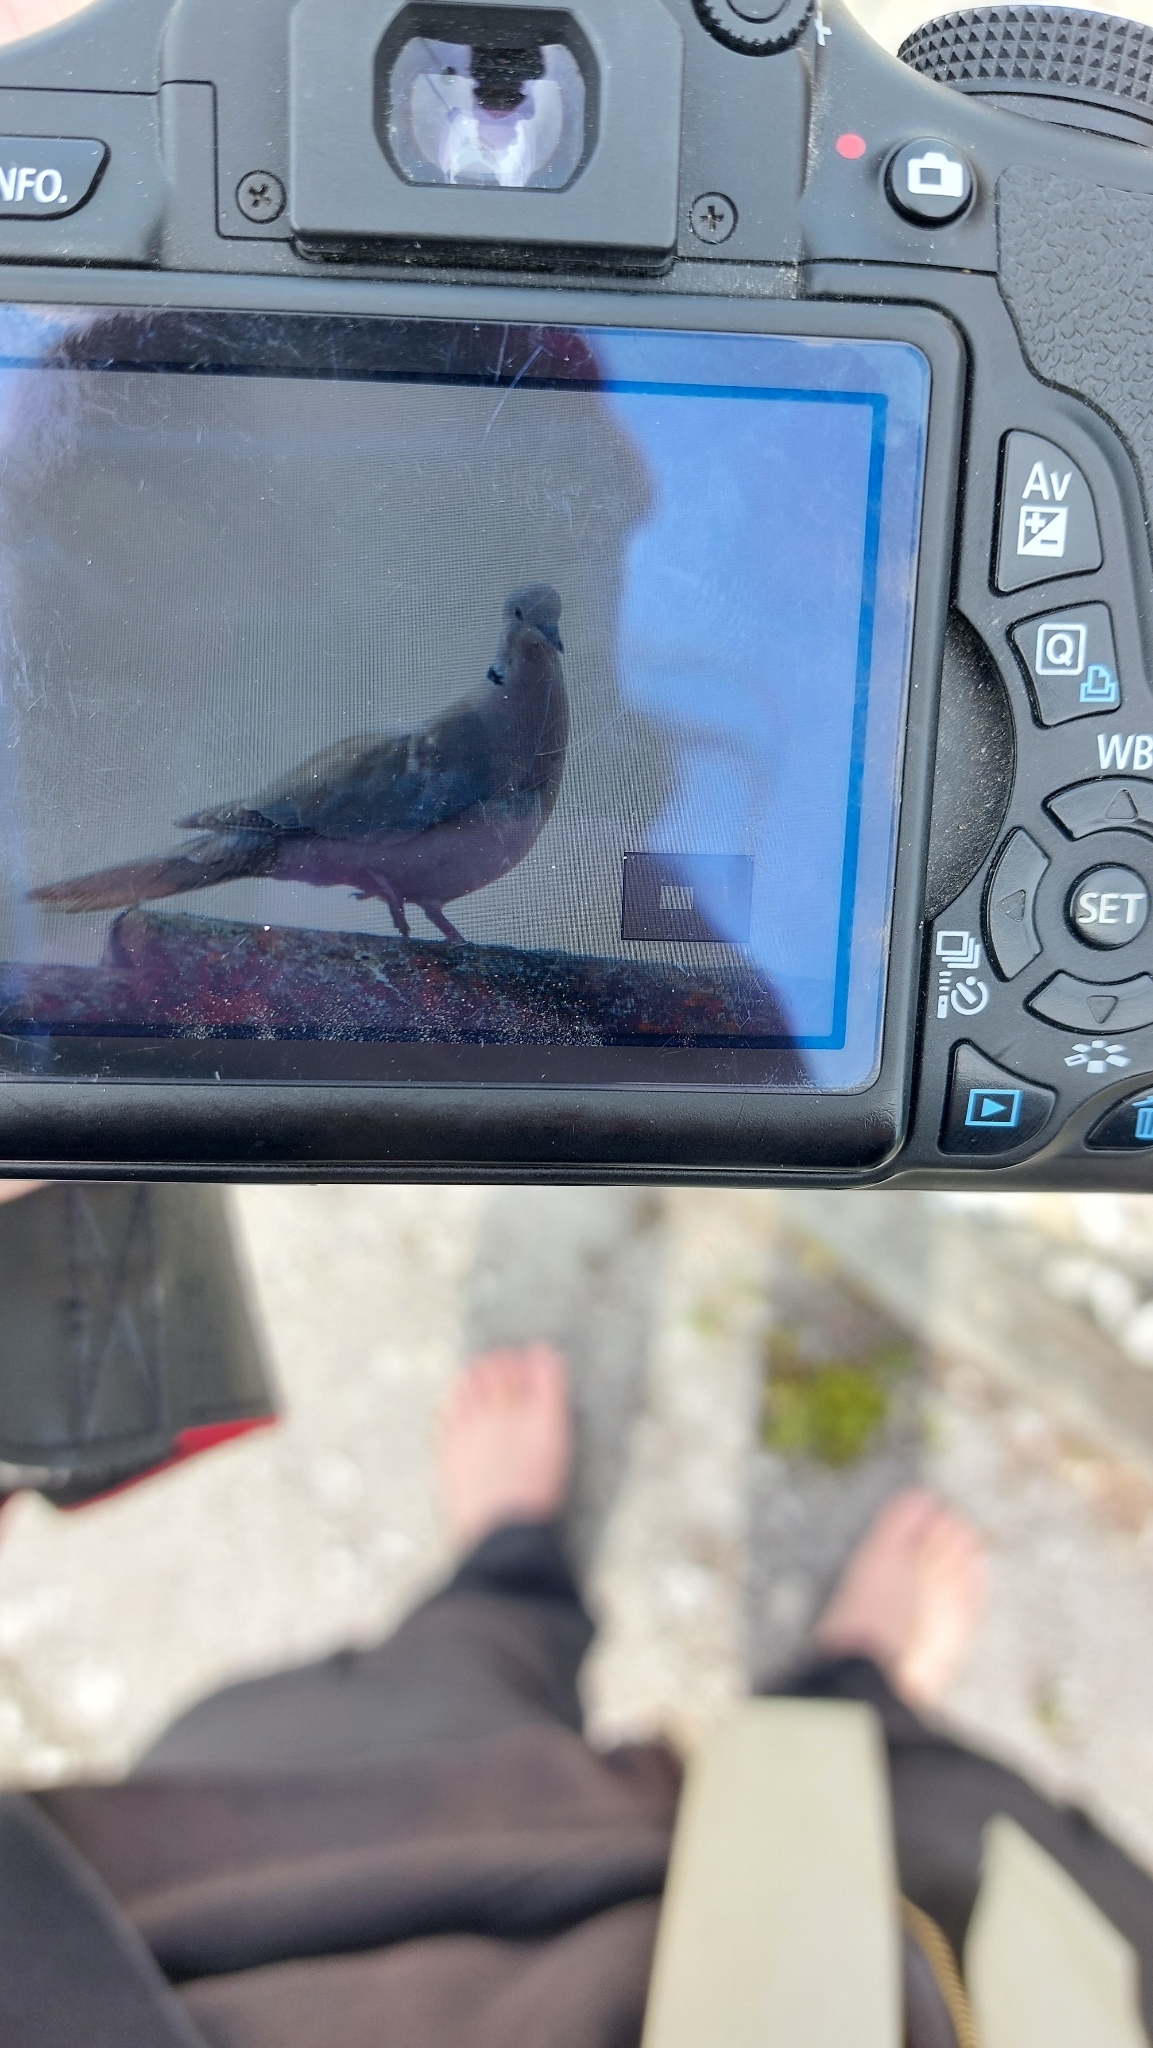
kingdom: Animalia
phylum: Chordata
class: Aves
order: Columbiformes
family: Columbidae
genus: Streptopelia
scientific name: Streptopelia decaocto
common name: Eurasian collared dove
